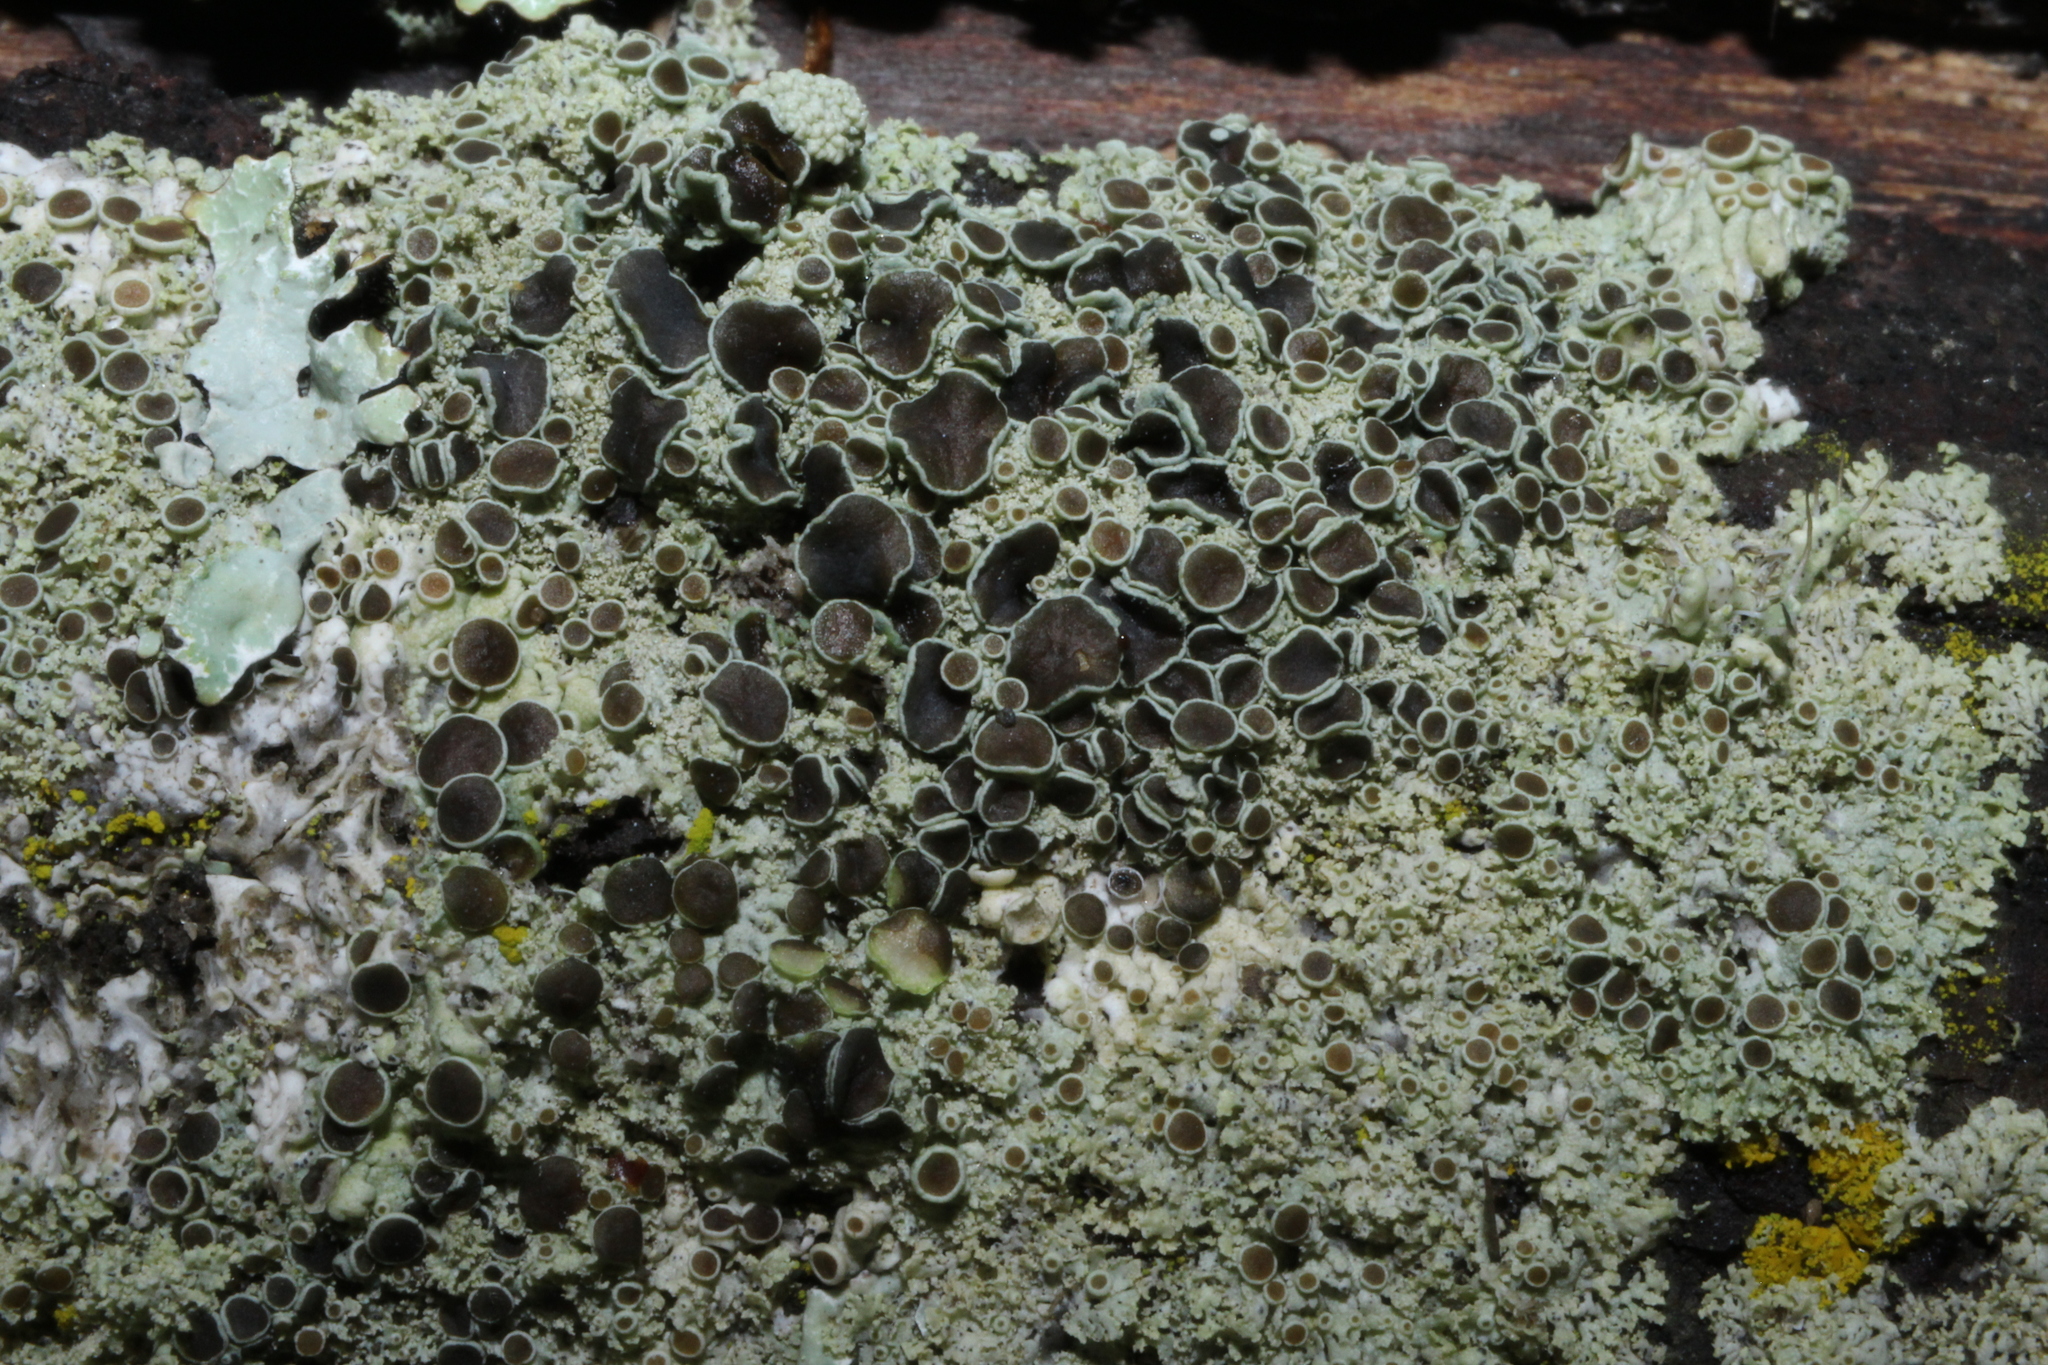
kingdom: Fungi
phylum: Ascomycota
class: Lecanoromycetes
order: Caliciales
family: Physciaceae
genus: Physcia
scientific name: Physcia millegrana
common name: Rosette lichen
